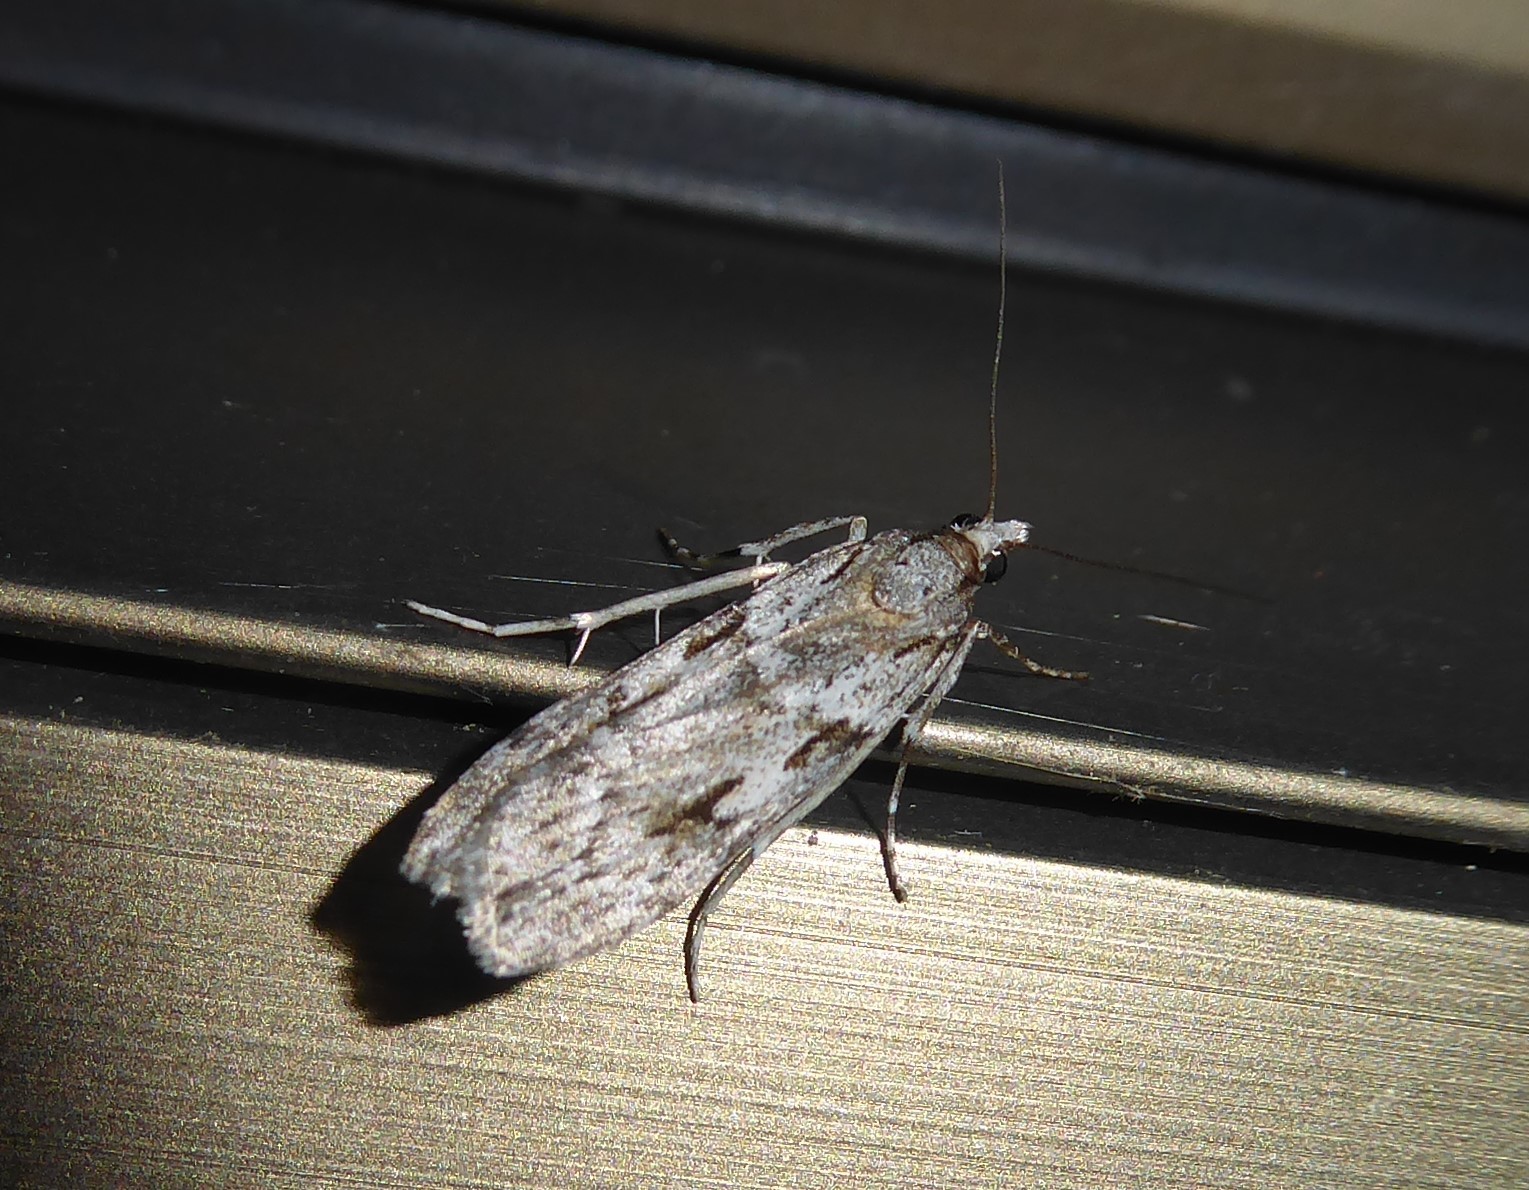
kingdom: Animalia
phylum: Arthropoda
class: Insecta
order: Lepidoptera
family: Crambidae
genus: Scoparia
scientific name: Scoparia halopis
